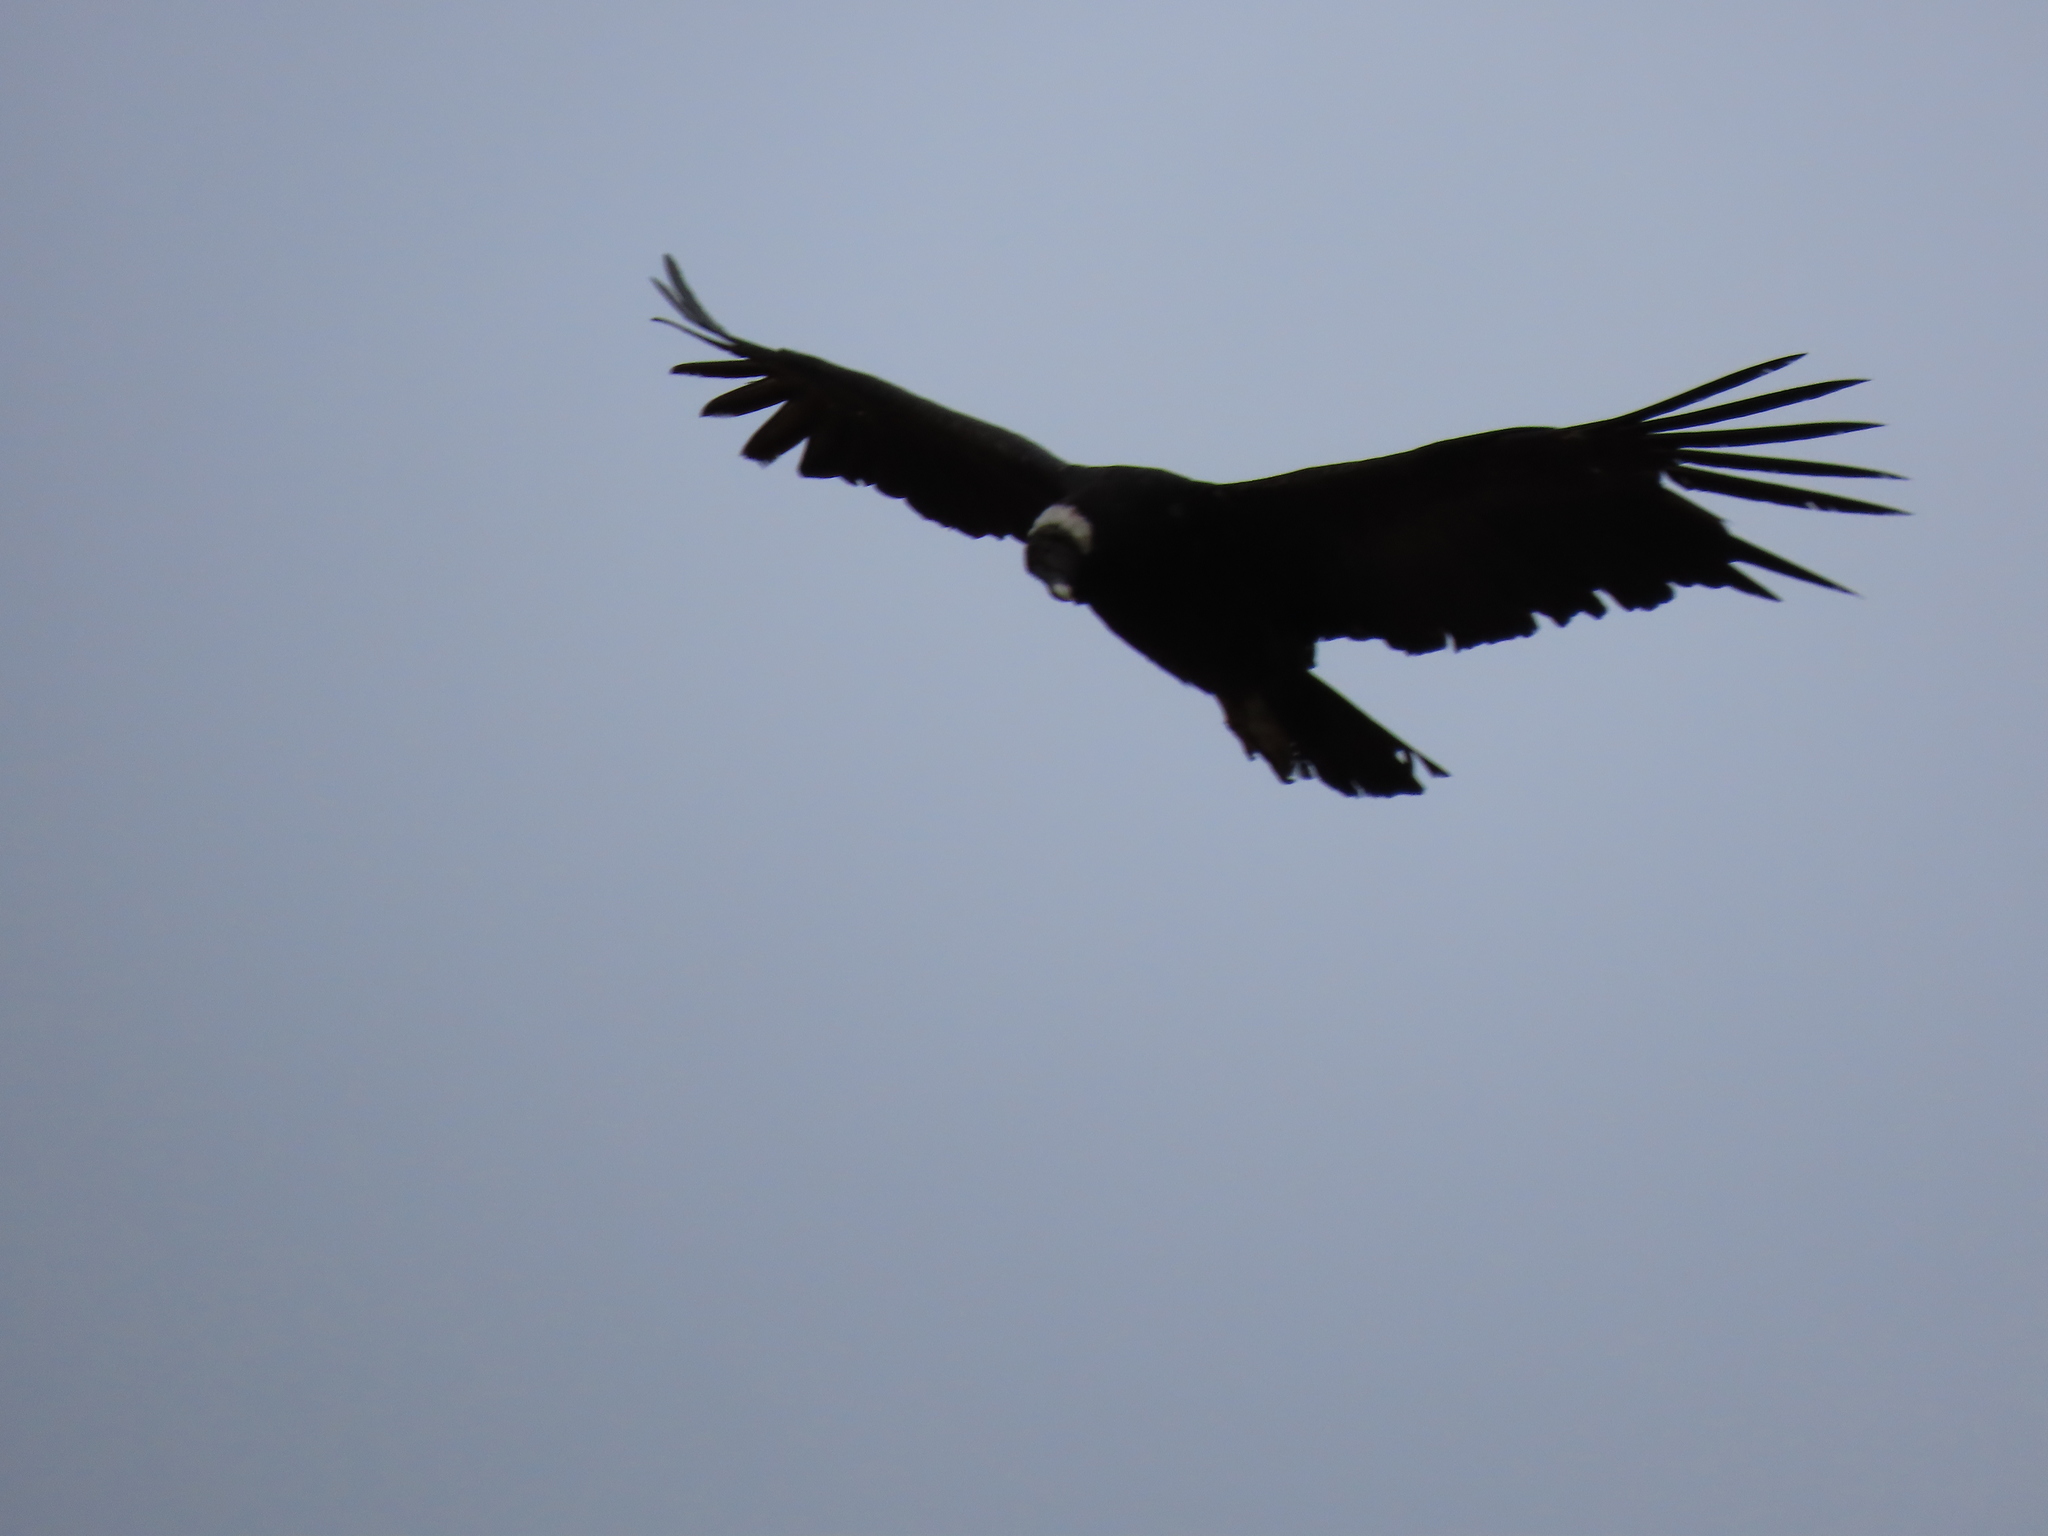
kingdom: Animalia
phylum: Chordata
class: Aves
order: Accipitriformes
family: Cathartidae
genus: Vultur
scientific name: Vultur gryphus
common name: Andean condor
